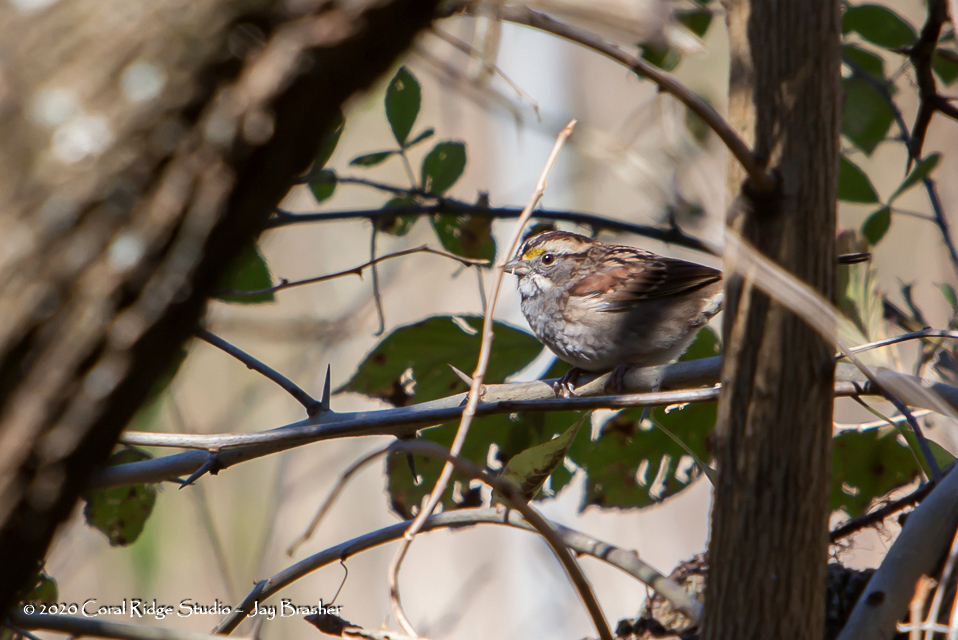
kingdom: Animalia
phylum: Chordata
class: Aves
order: Passeriformes
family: Passerellidae
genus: Zonotrichia
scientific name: Zonotrichia albicollis
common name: White-throated sparrow
